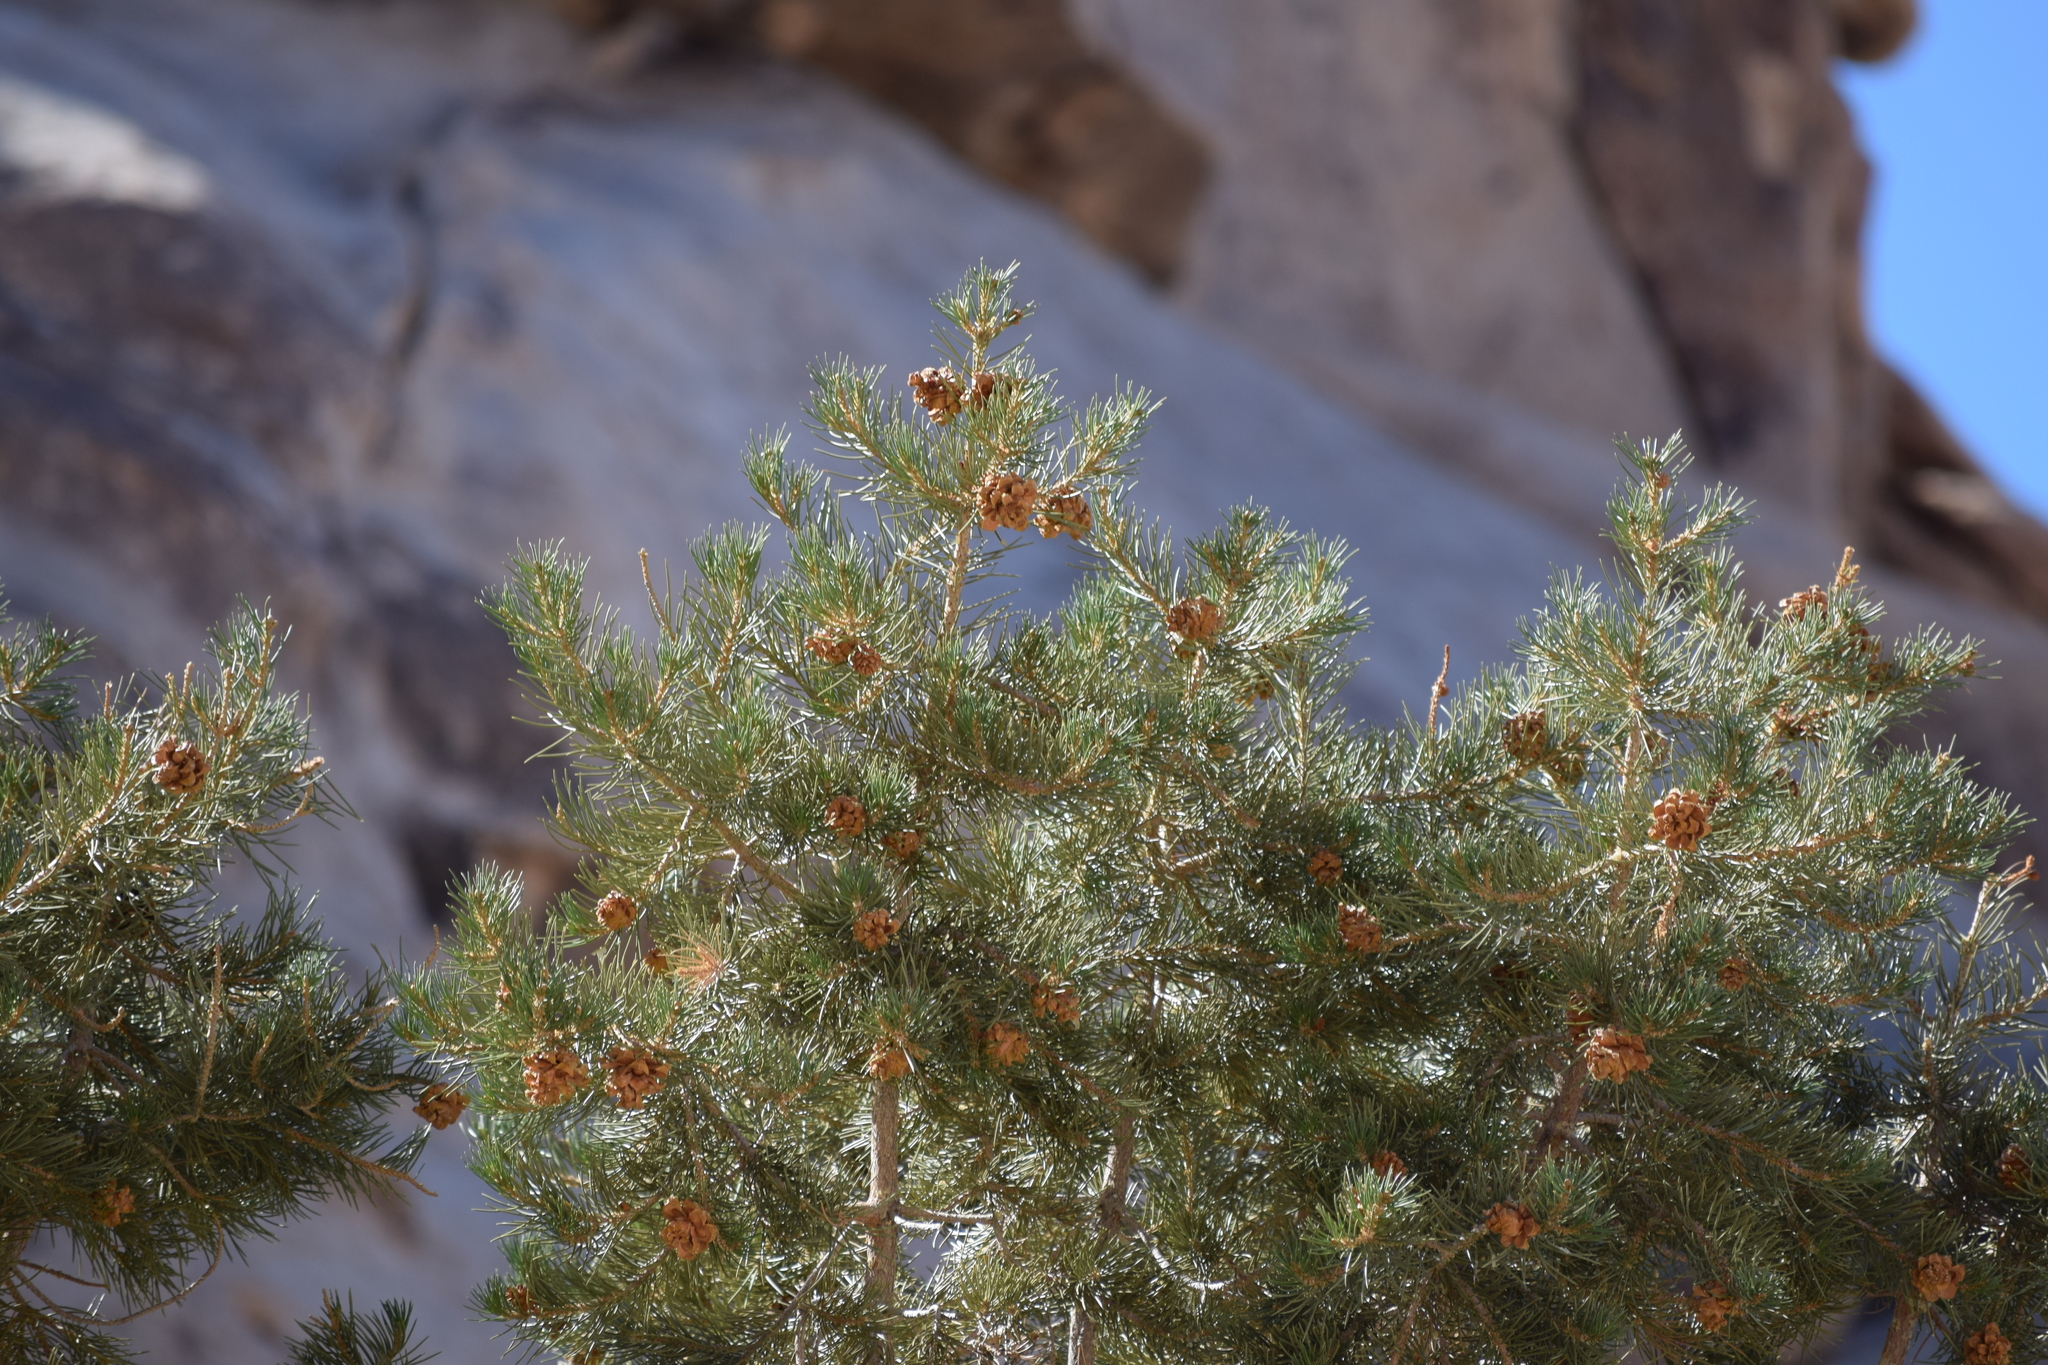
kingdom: Plantae
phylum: Tracheophyta
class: Pinopsida
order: Pinales
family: Pinaceae
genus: Pinus
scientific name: Pinus monophylla
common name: One-leaved nut pine
